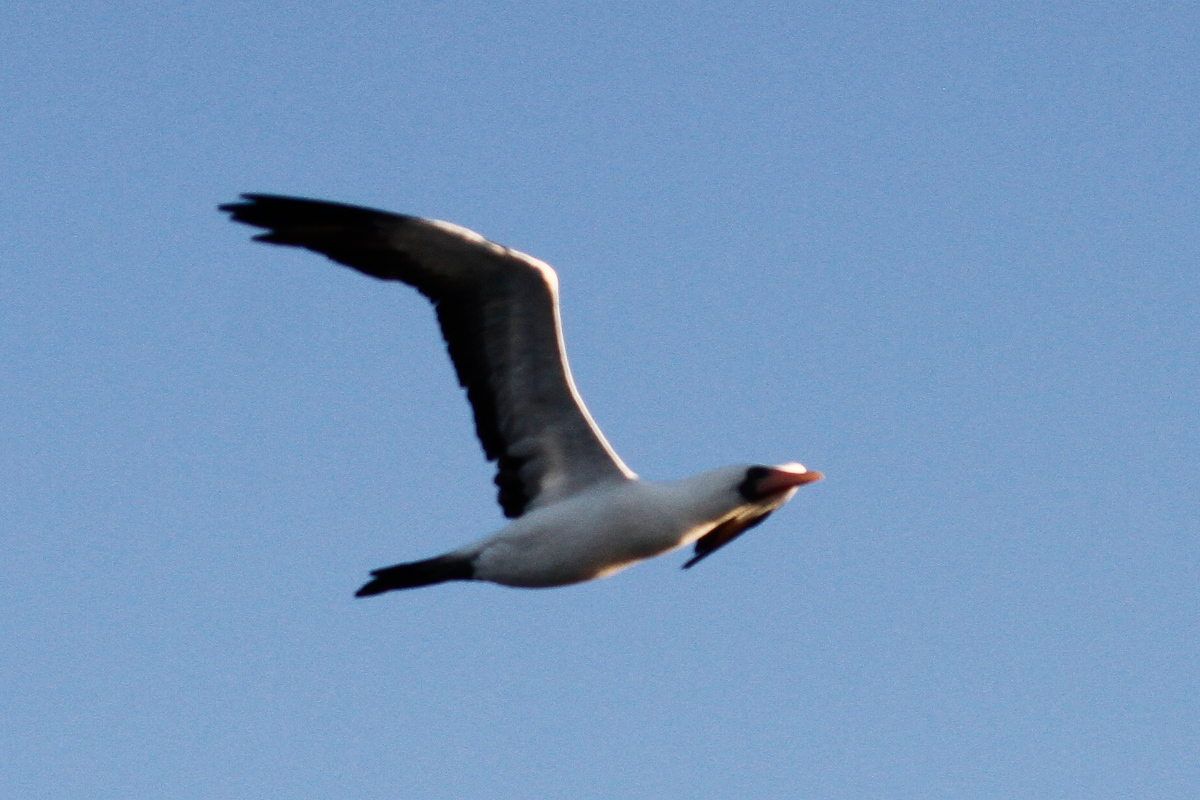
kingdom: Animalia
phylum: Chordata
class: Aves
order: Suliformes
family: Sulidae
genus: Sula
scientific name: Sula granti
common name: Nazca booby
